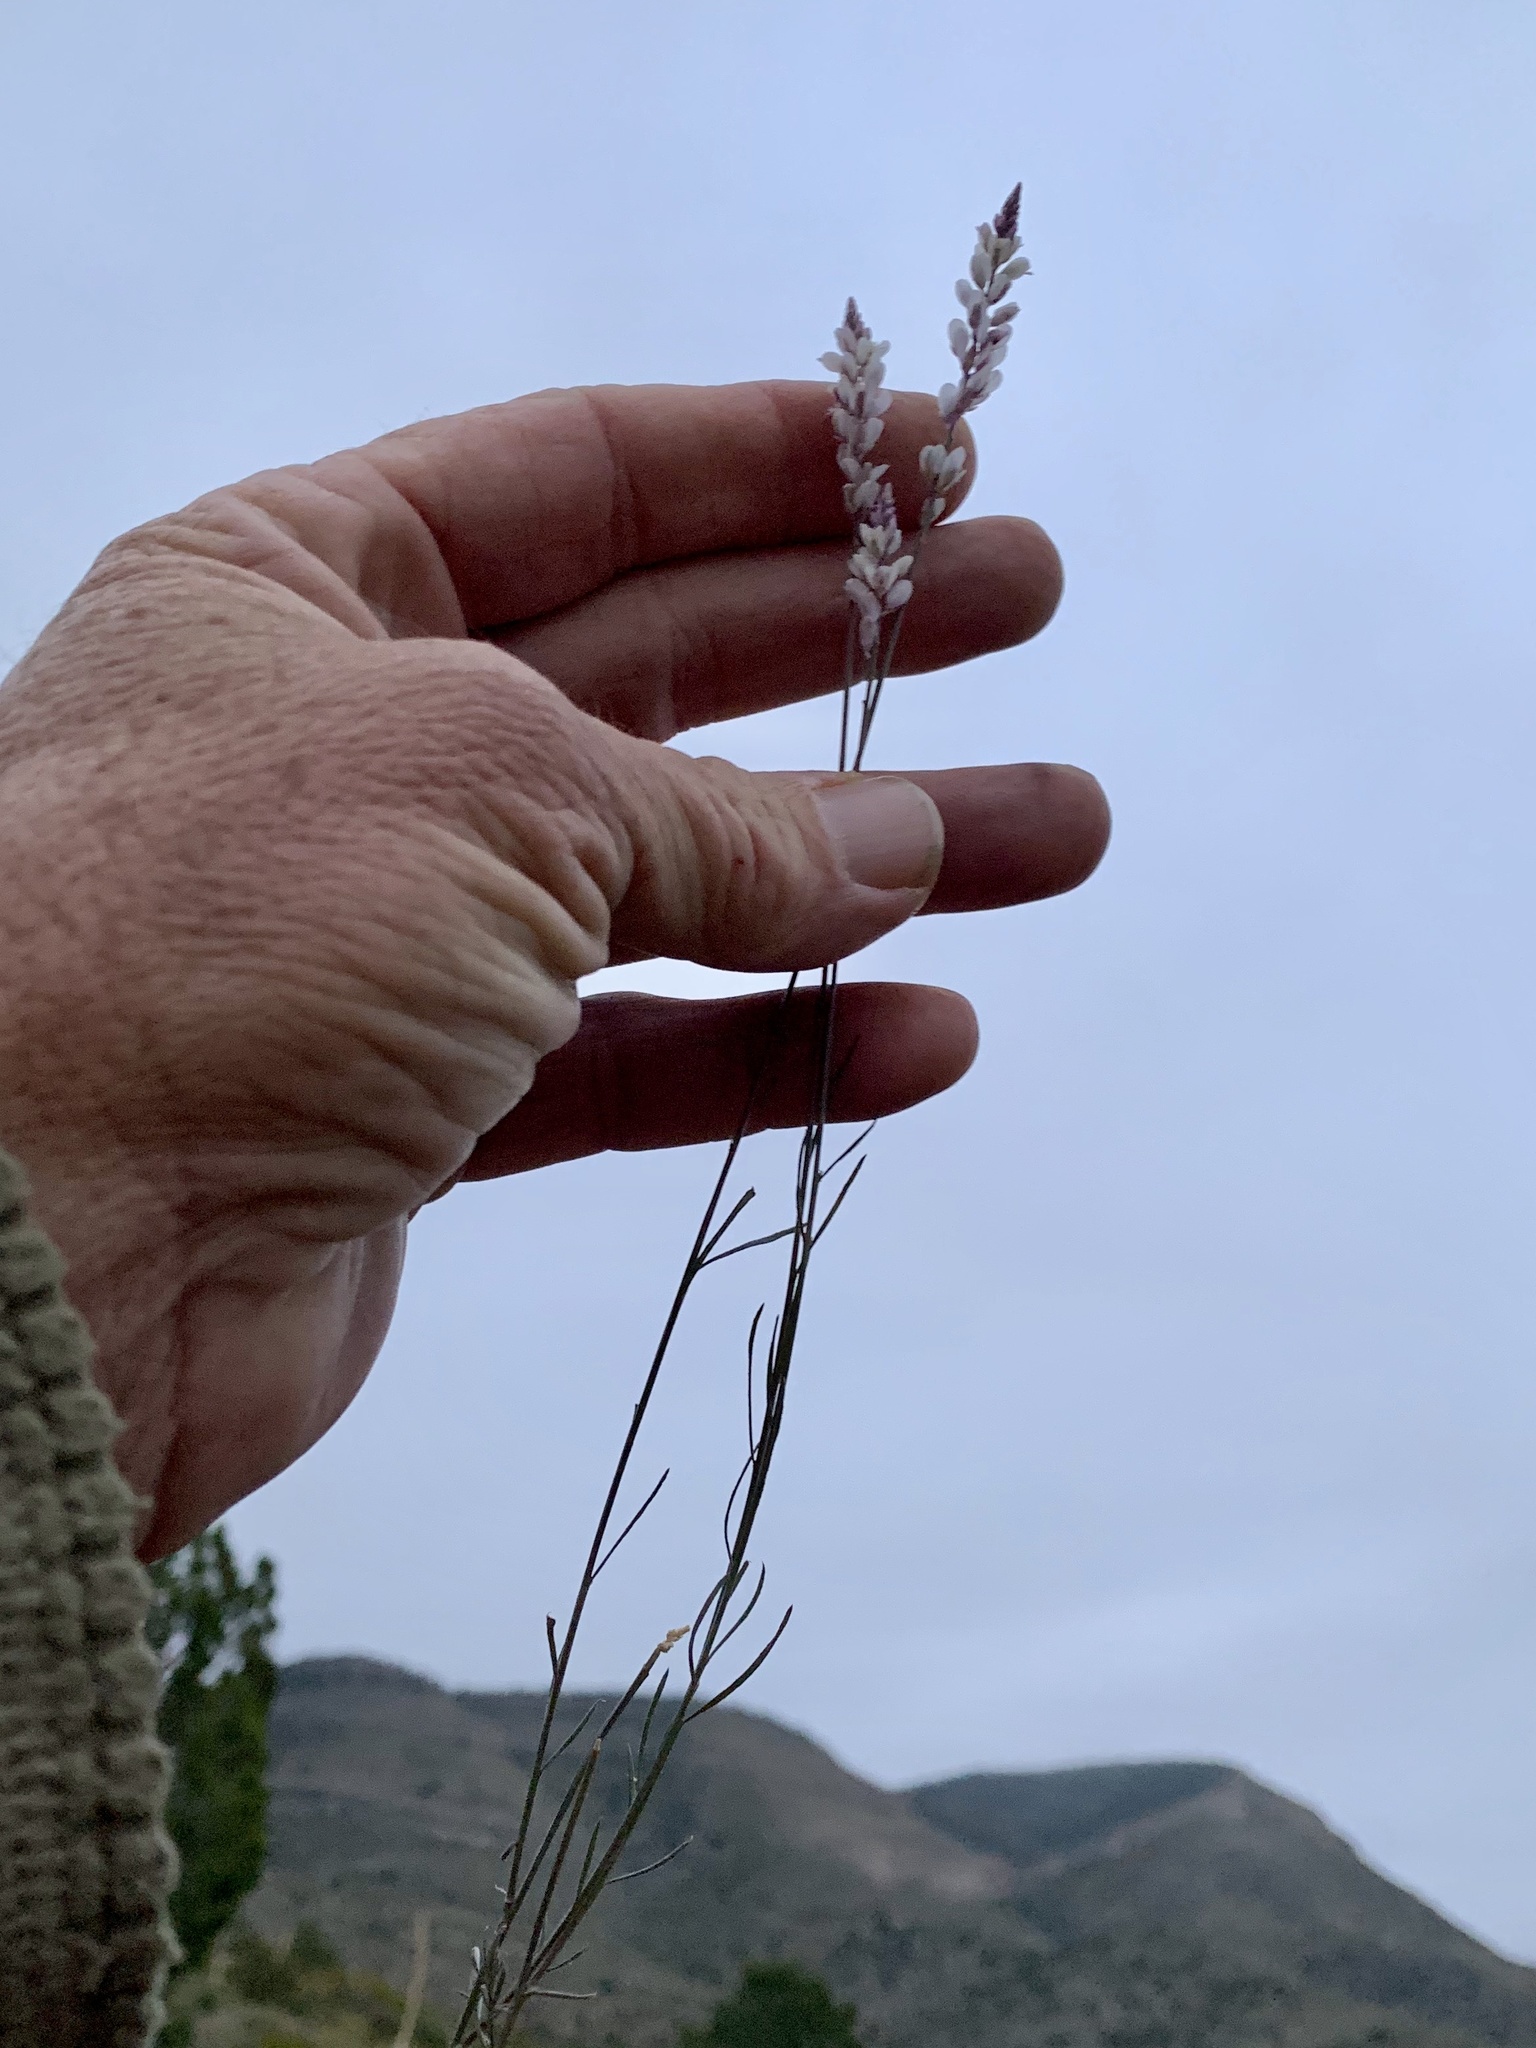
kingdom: Plantae
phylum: Tracheophyta
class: Magnoliopsida
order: Fabales
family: Polygalaceae
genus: Polygala
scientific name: Polygala alba
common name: White milkwort
